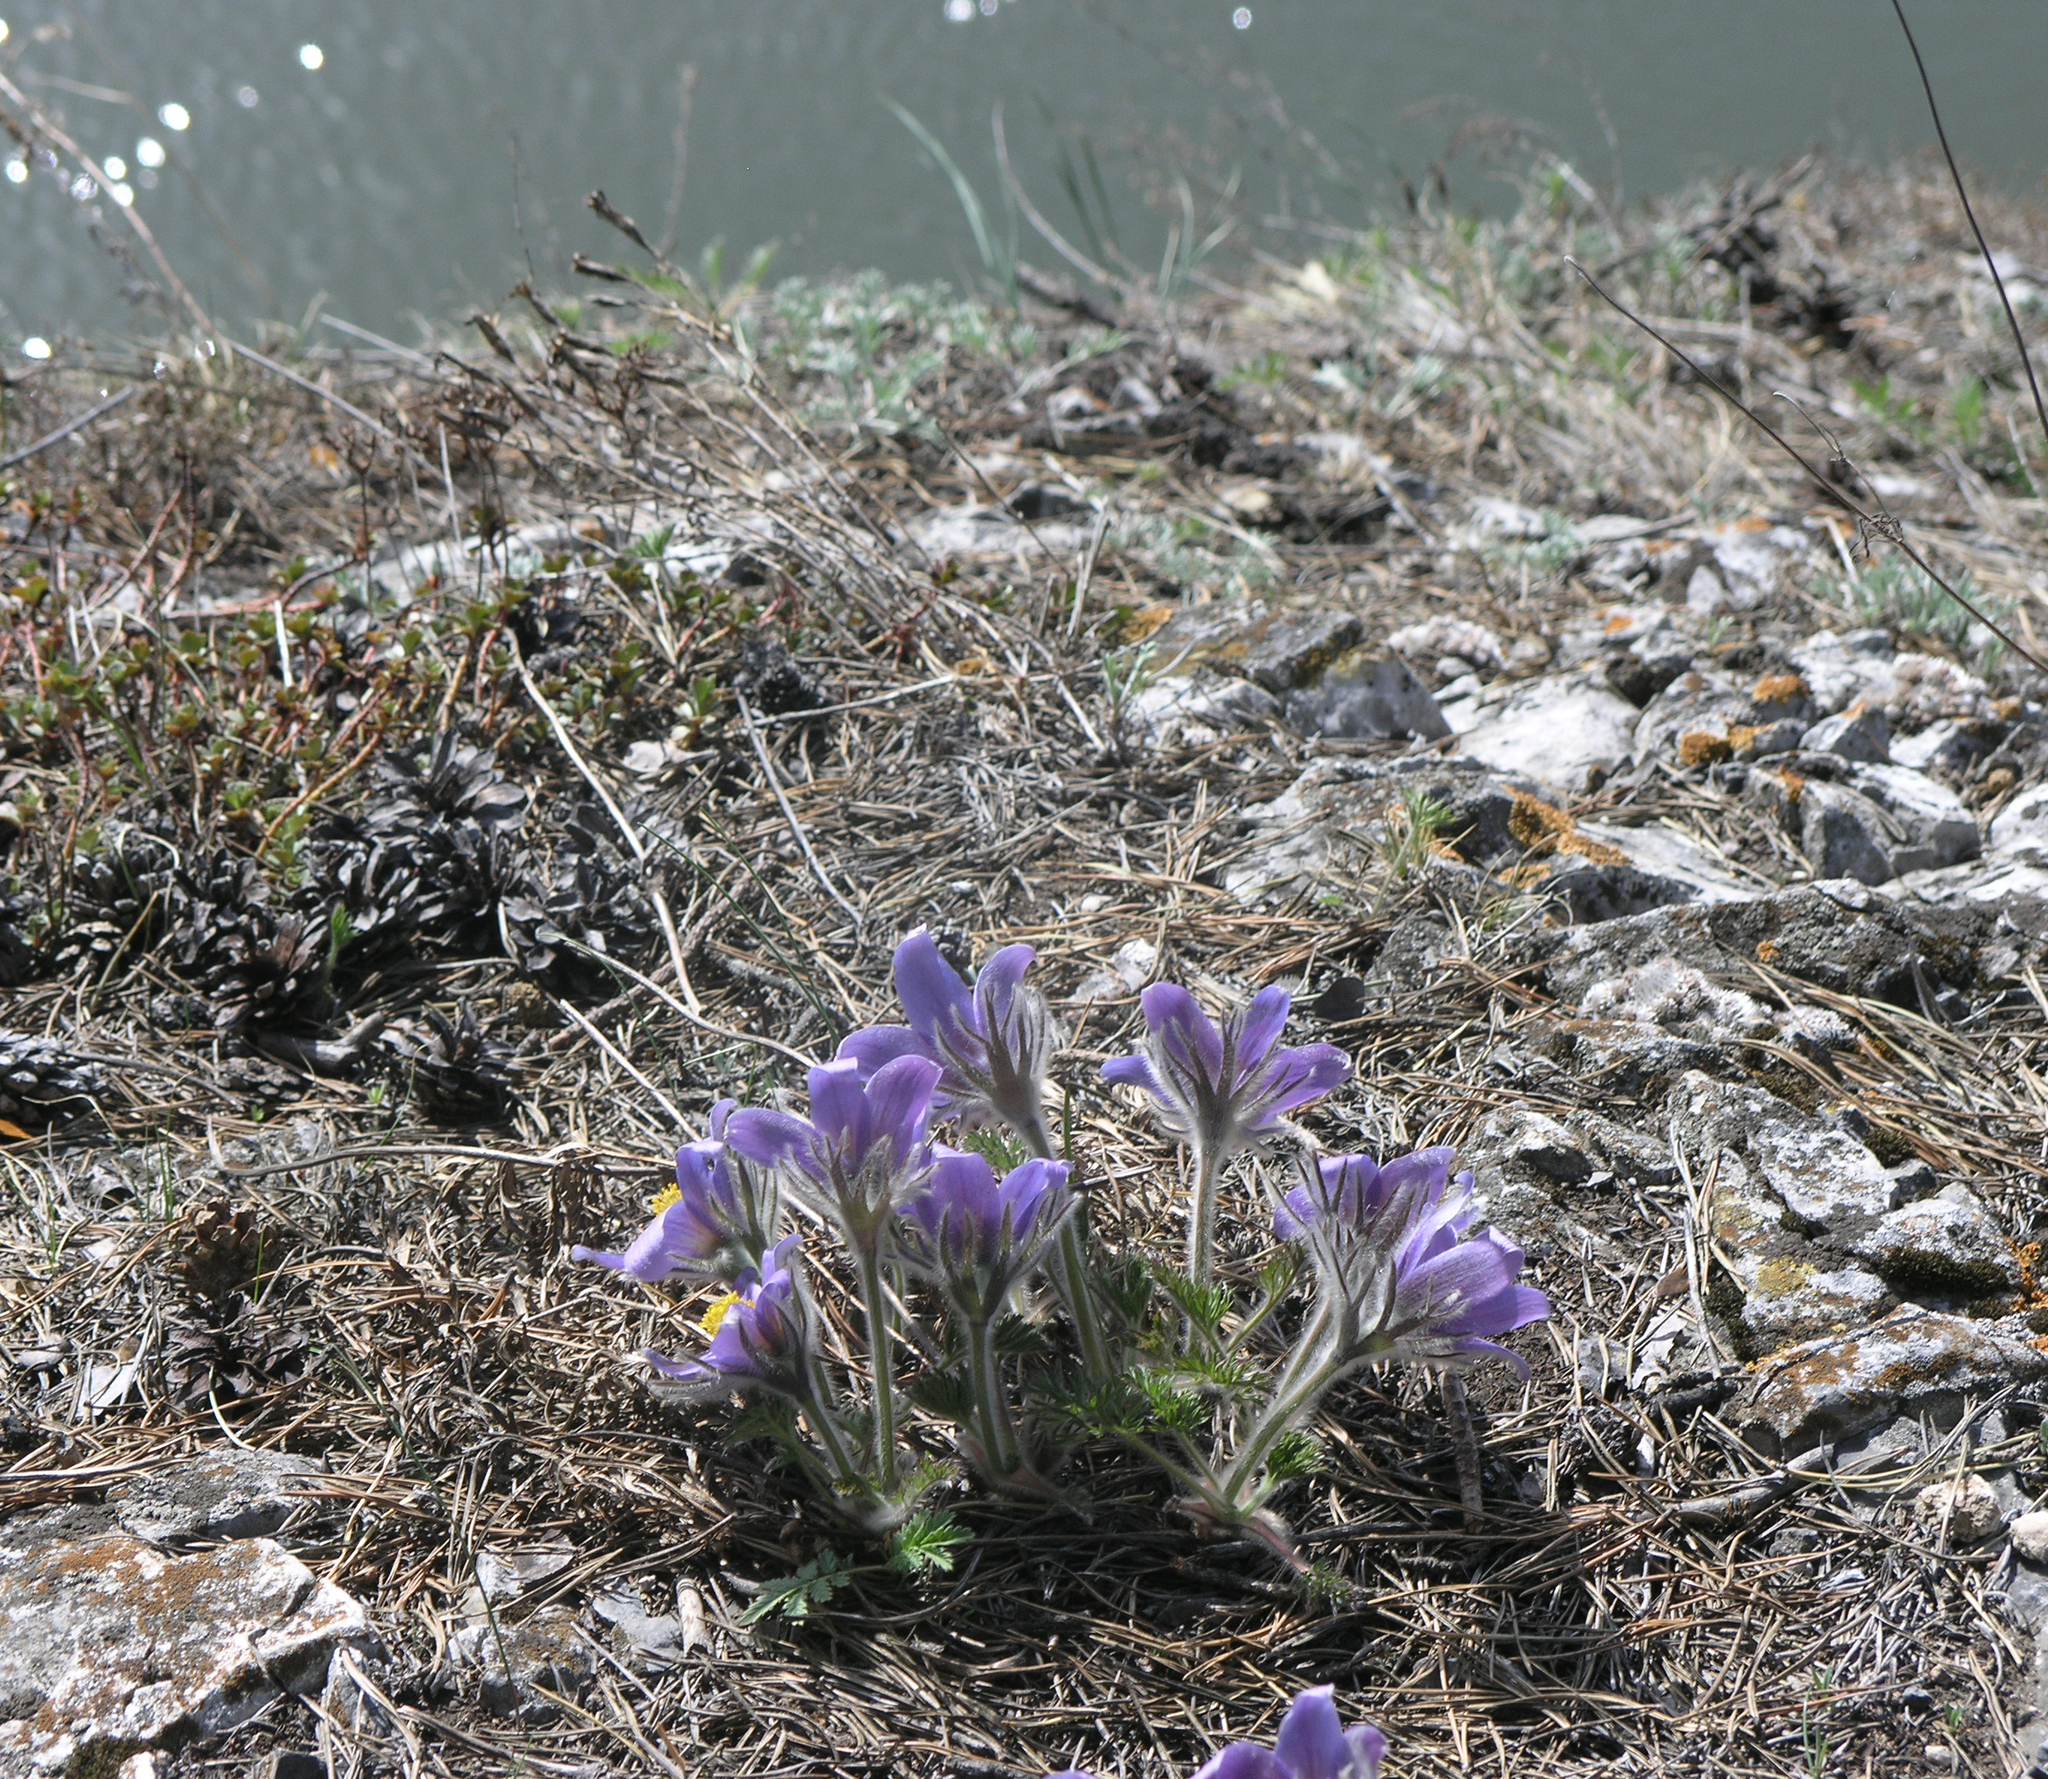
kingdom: Plantae
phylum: Tracheophyta
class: Magnoliopsida
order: Ranunculales
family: Ranunculaceae
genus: Pulsatilla
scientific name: Pulsatilla turczaninovii
